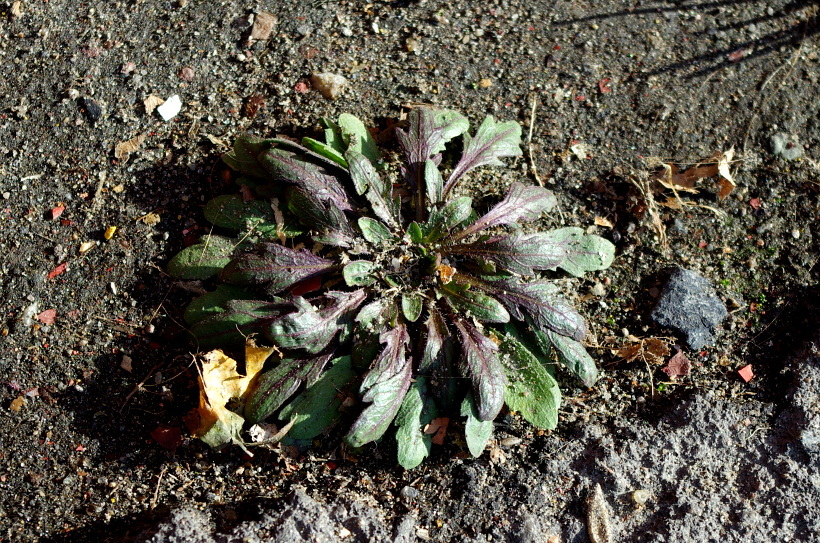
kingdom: Plantae
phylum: Tracheophyta
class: Magnoliopsida
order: Asterales
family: Asteraceae
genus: Erigeron
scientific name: Erigeron canadensis
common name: Canadian fleabane
